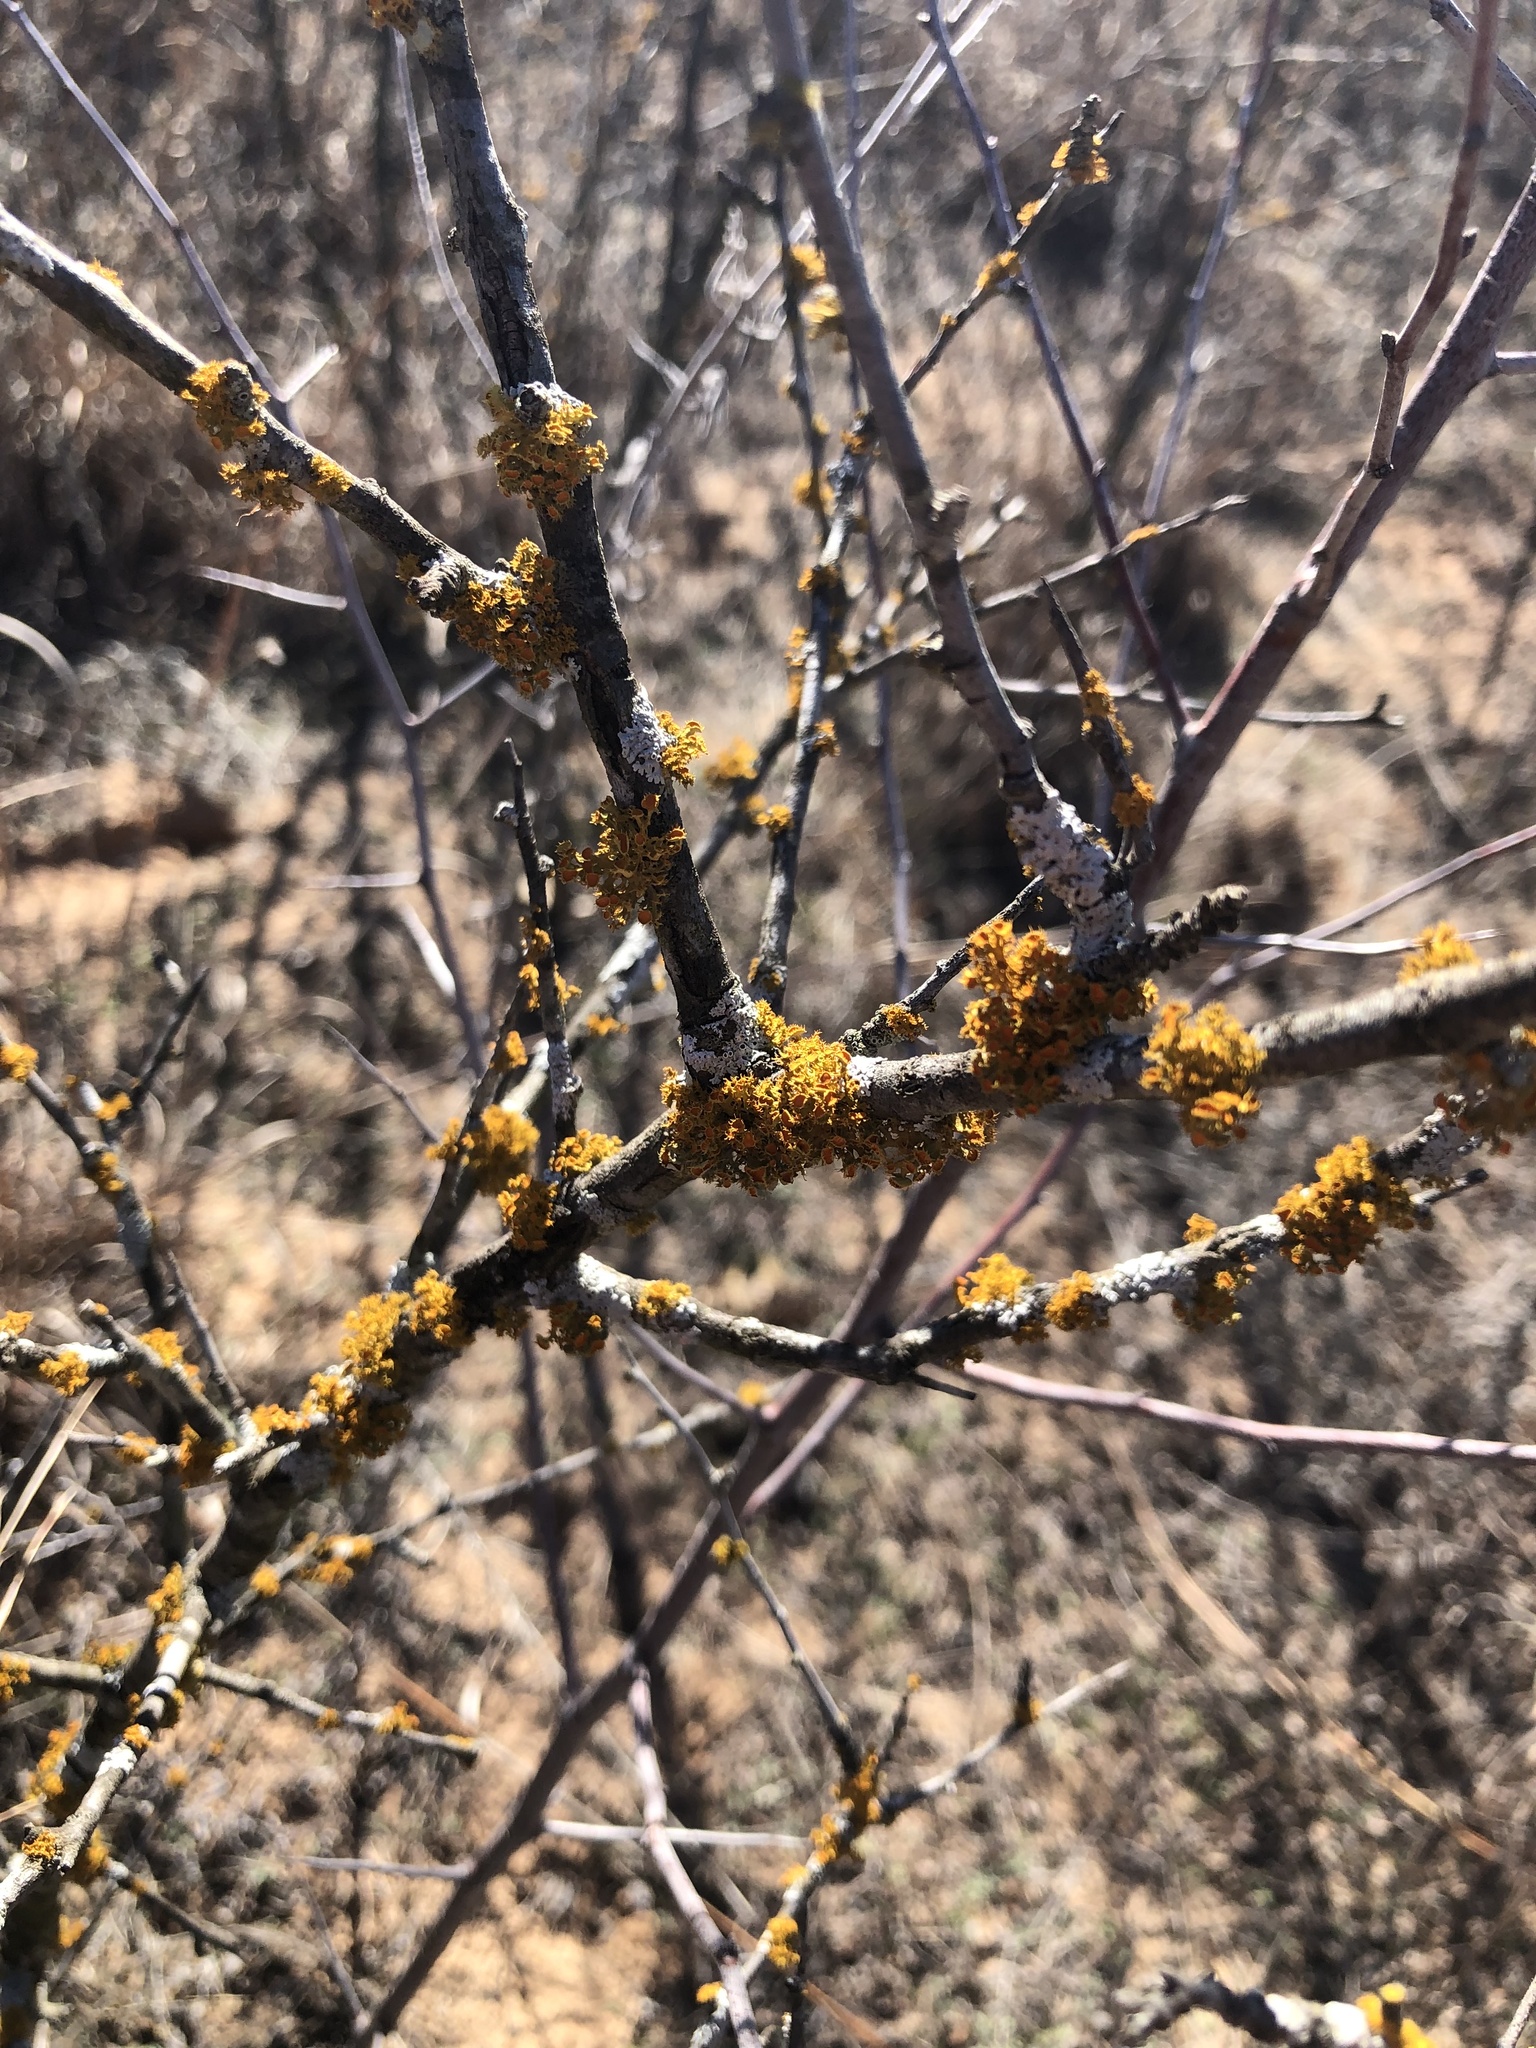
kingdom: Fungi
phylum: Ascomycota
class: Lecanoromycetes
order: Teloschistales
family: Teloschistaceae
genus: Niorma
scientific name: Niorma chrysophthalma
